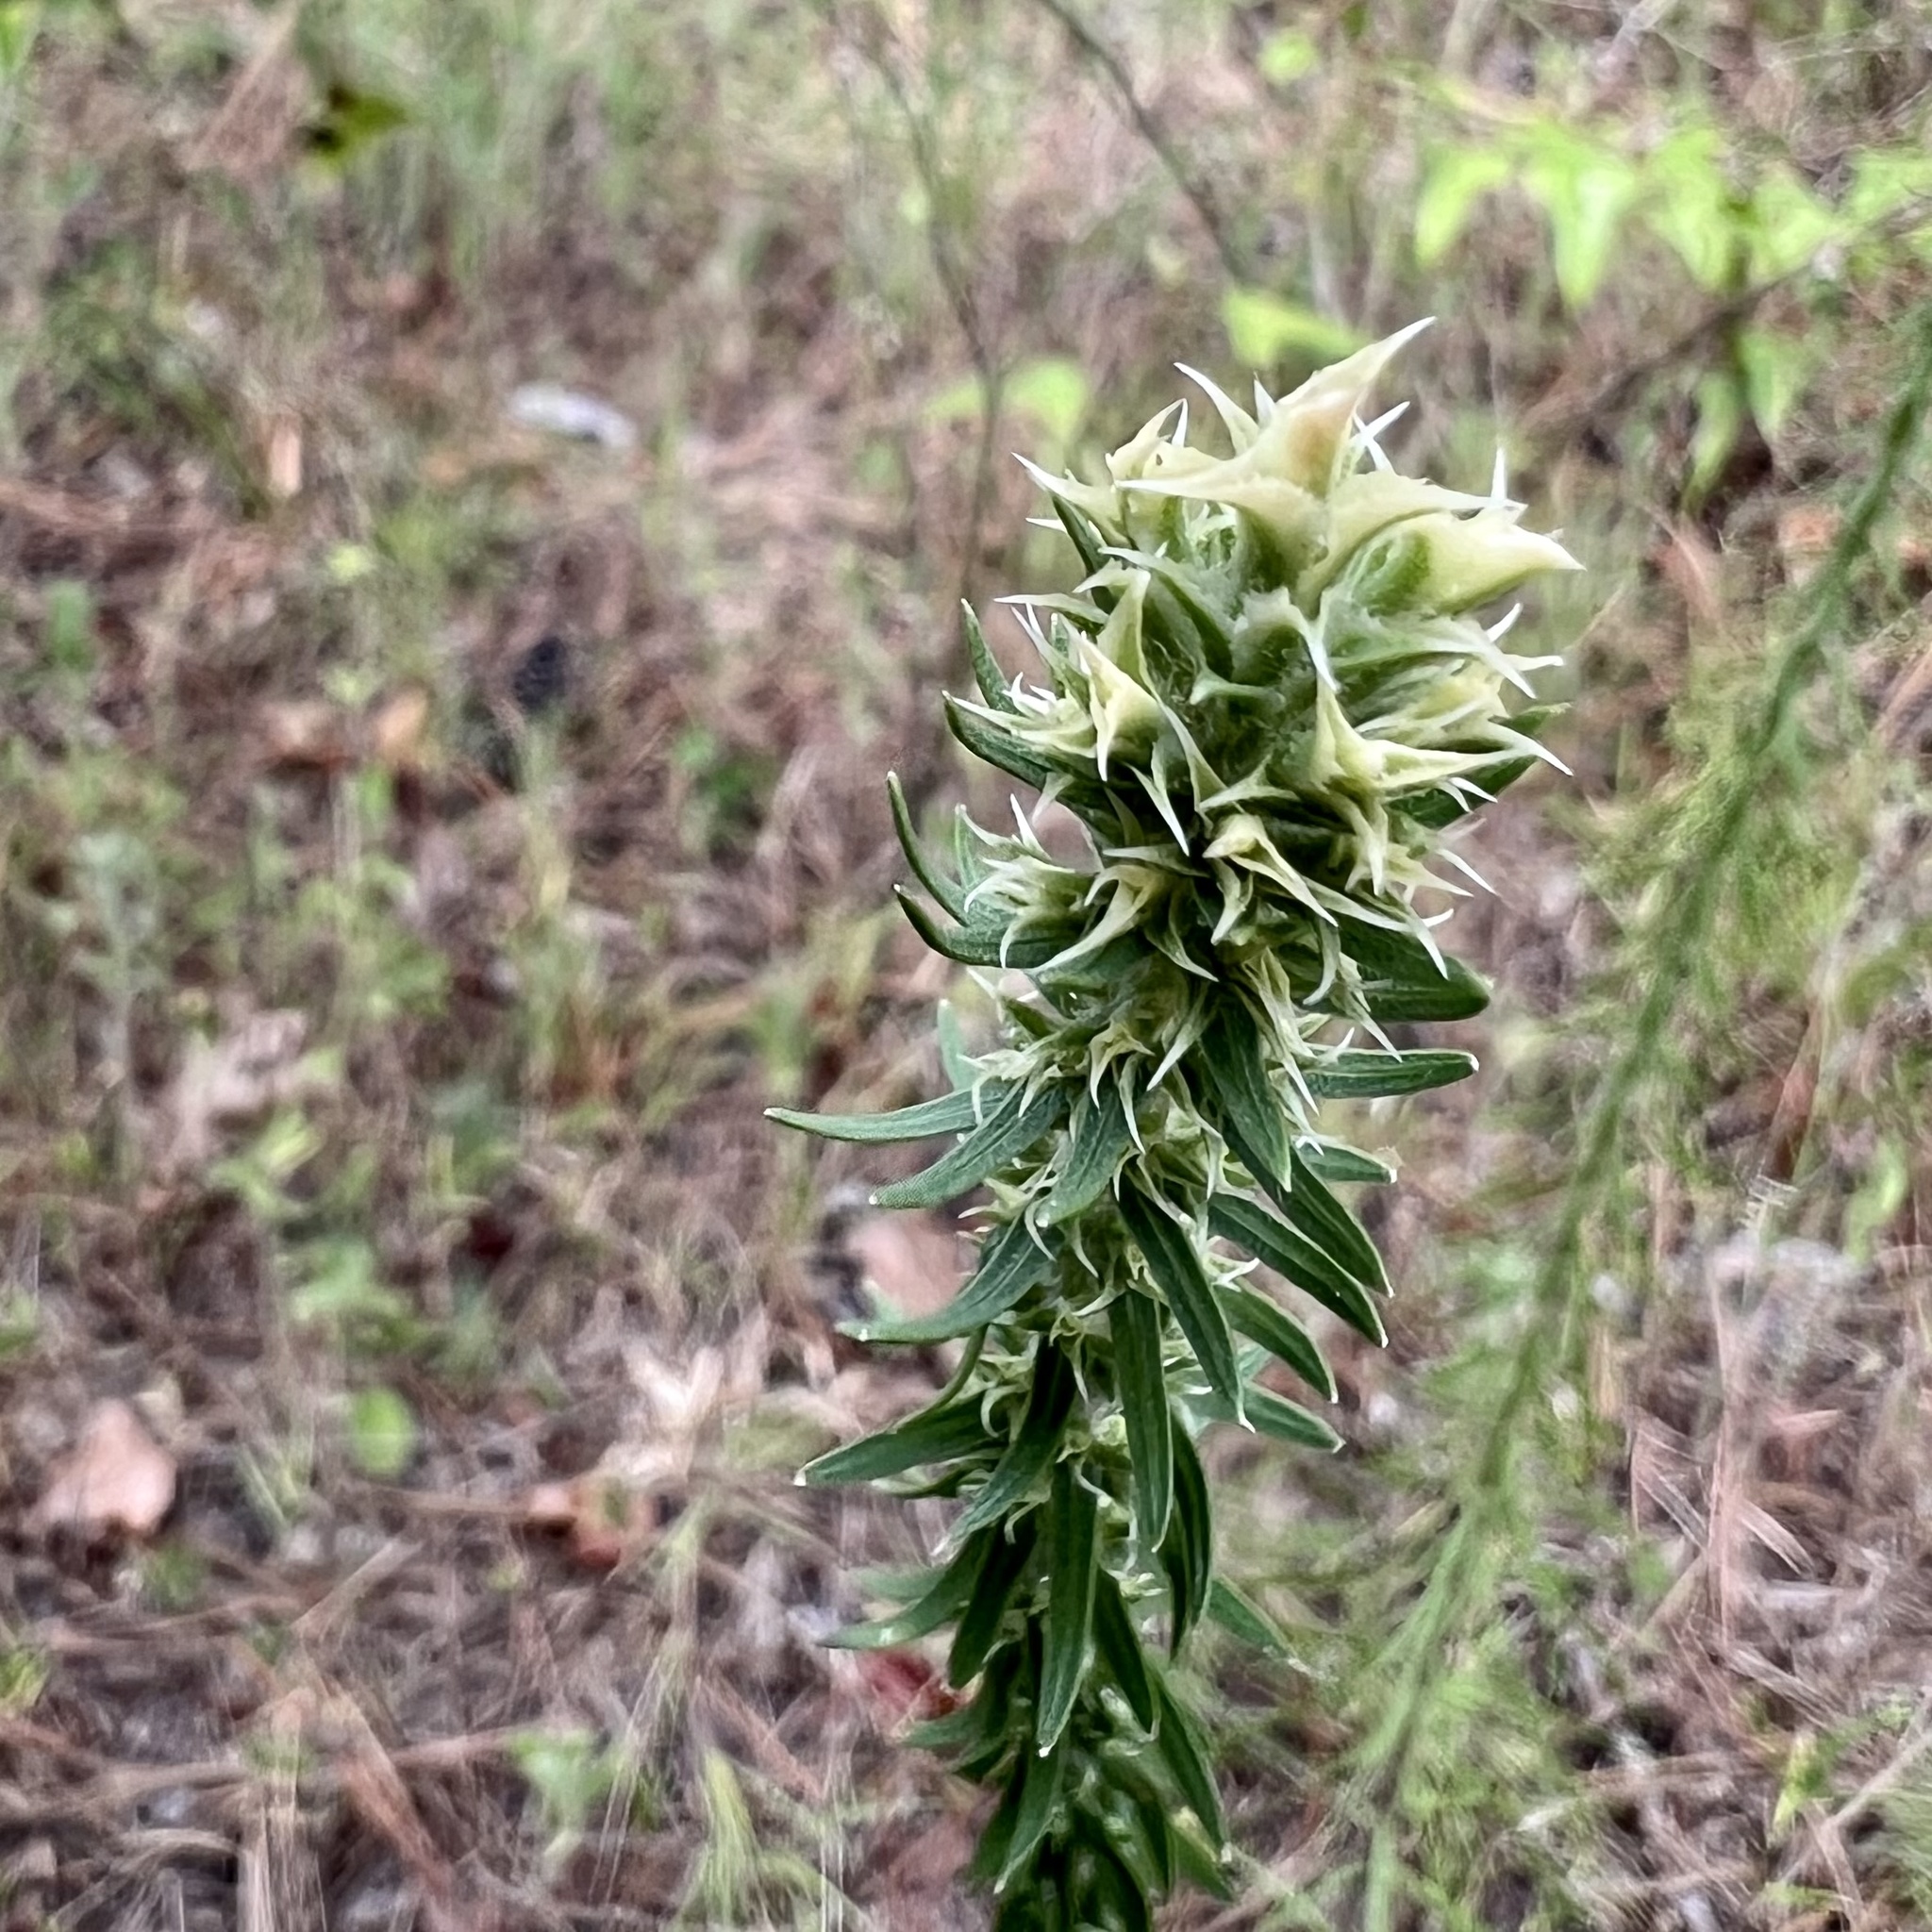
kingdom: Plantae
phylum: Tracheophyta
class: Magnoliopsida
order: Asterales
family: Asteraceae
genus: Liatris
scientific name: Liatris bridgesii
